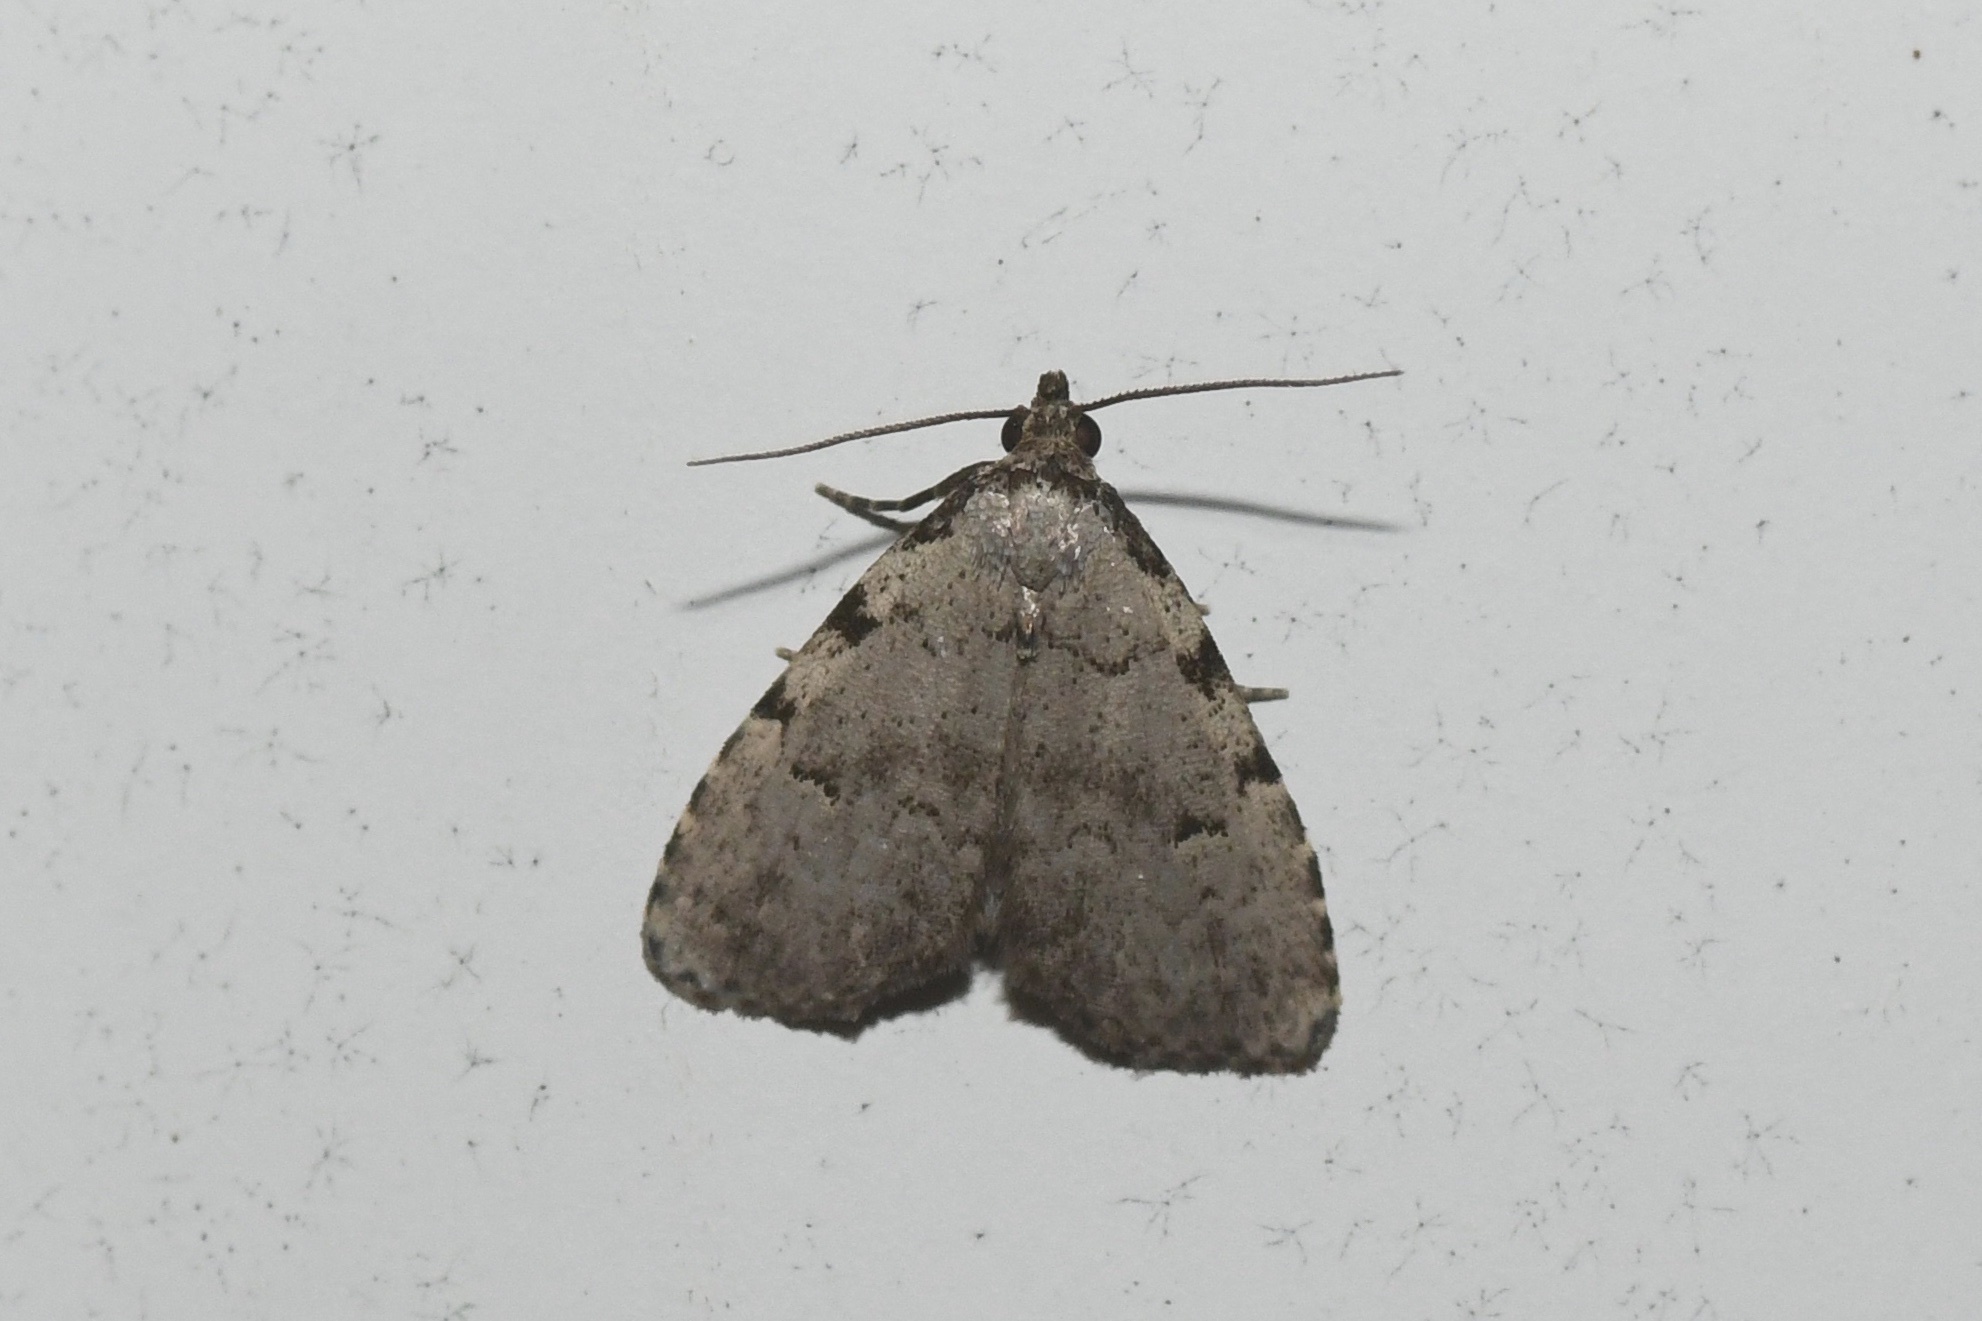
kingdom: Animalia
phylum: Arthropoda
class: Insecta
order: Lepidoptera
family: Erebidae
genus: Dyspyralis
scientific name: Dyspyralis puncticosta
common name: Spot-edged dyspyralis moth
